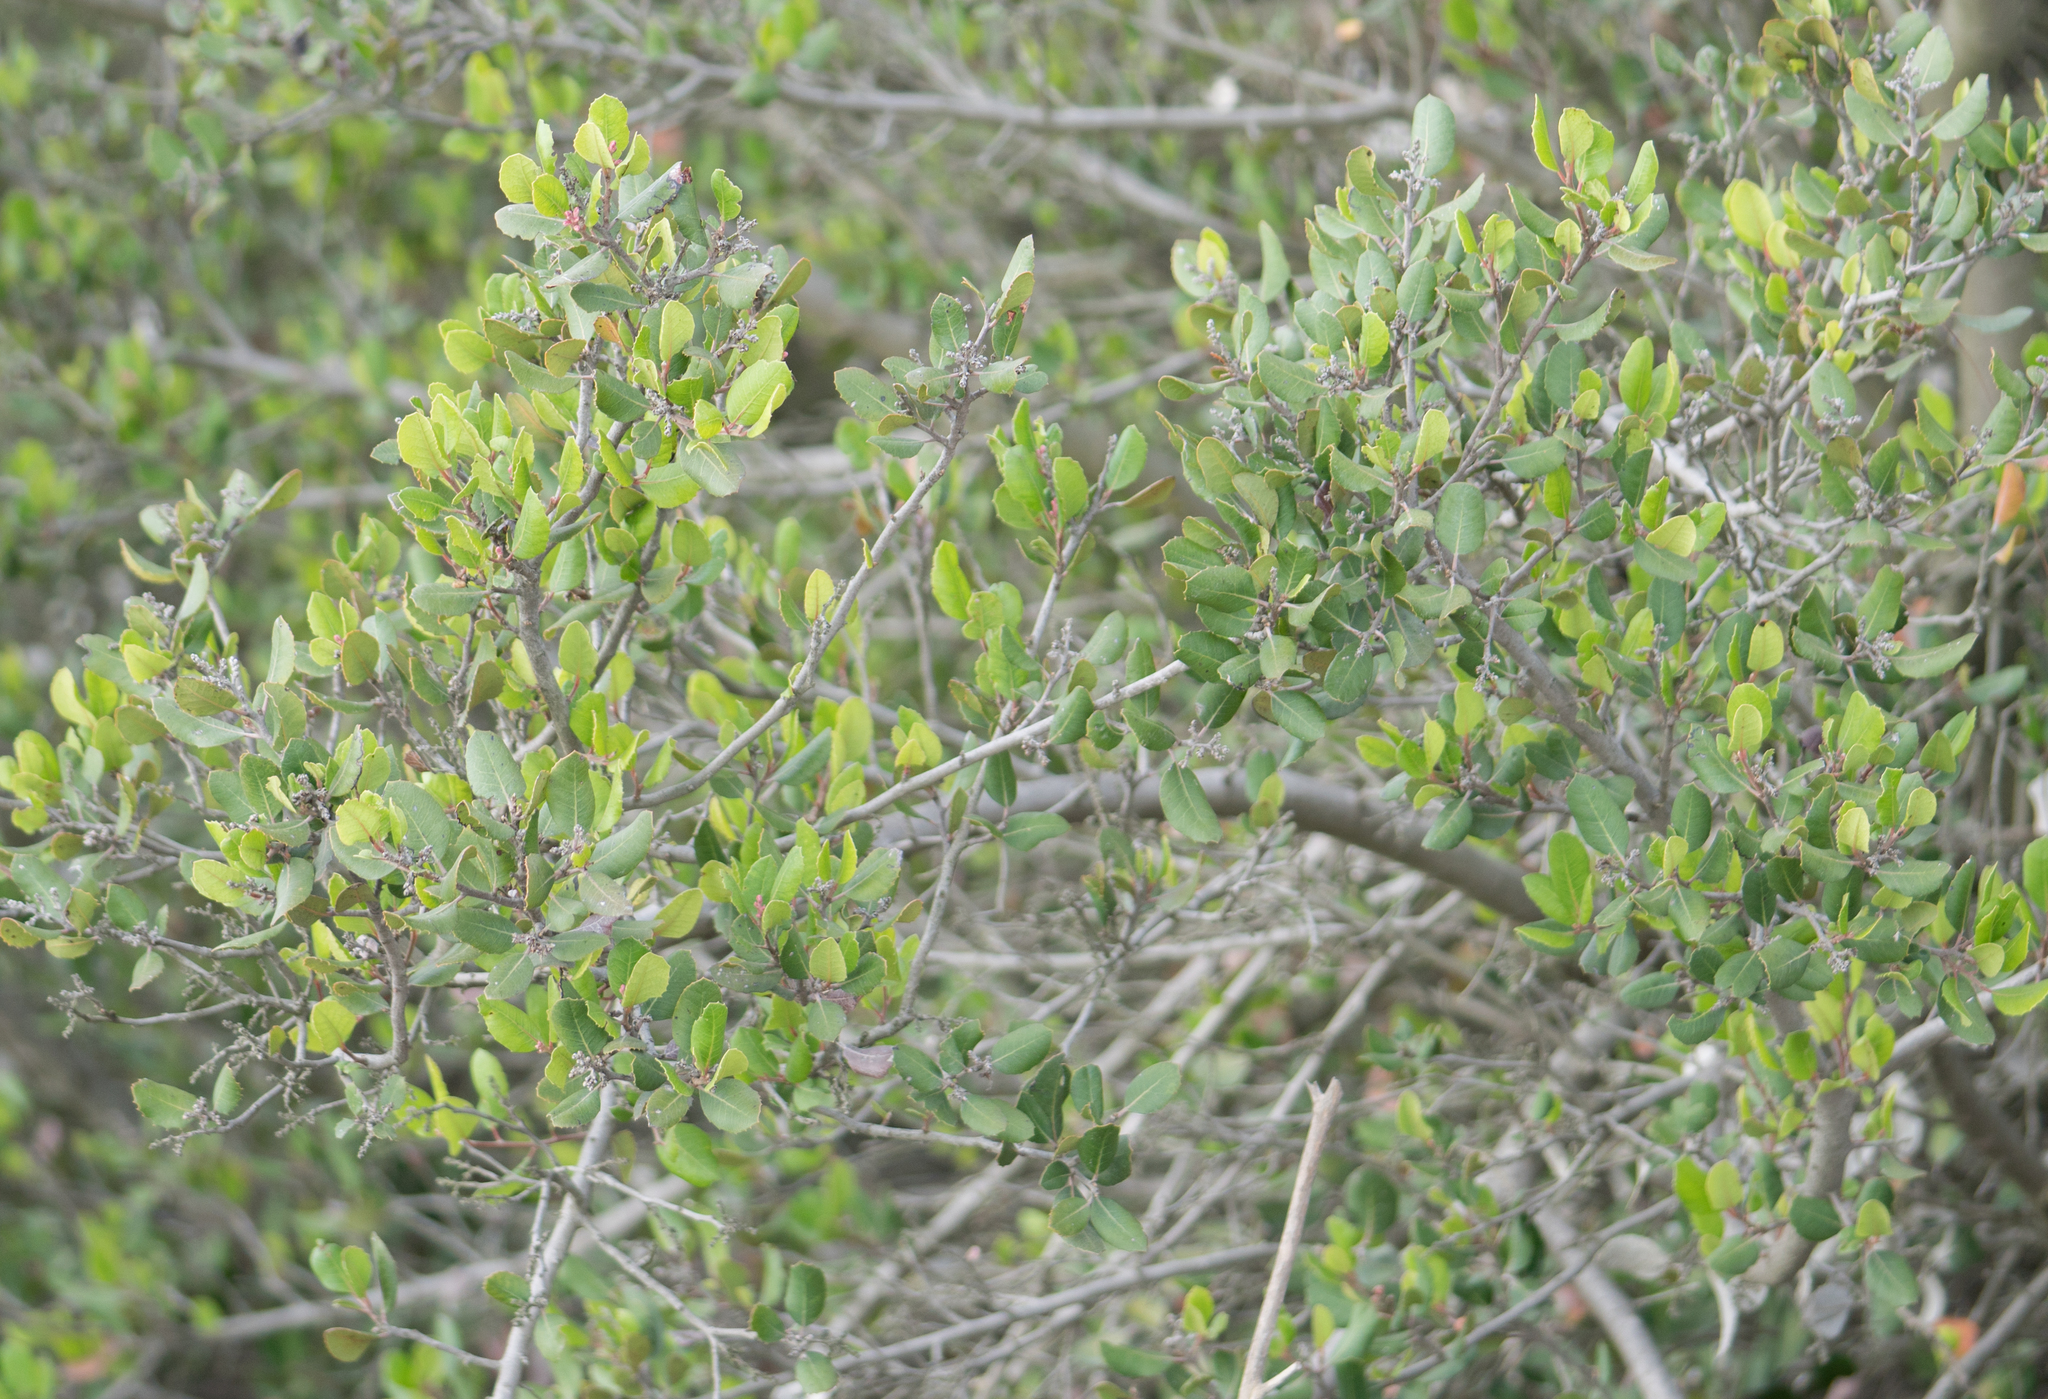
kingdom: Plantae
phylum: Tracheophyta
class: Magnoliopsida
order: Sapindales
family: Anacardiaceae
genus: Rhus
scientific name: Rhus integrifolia
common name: Lemonade sumac
